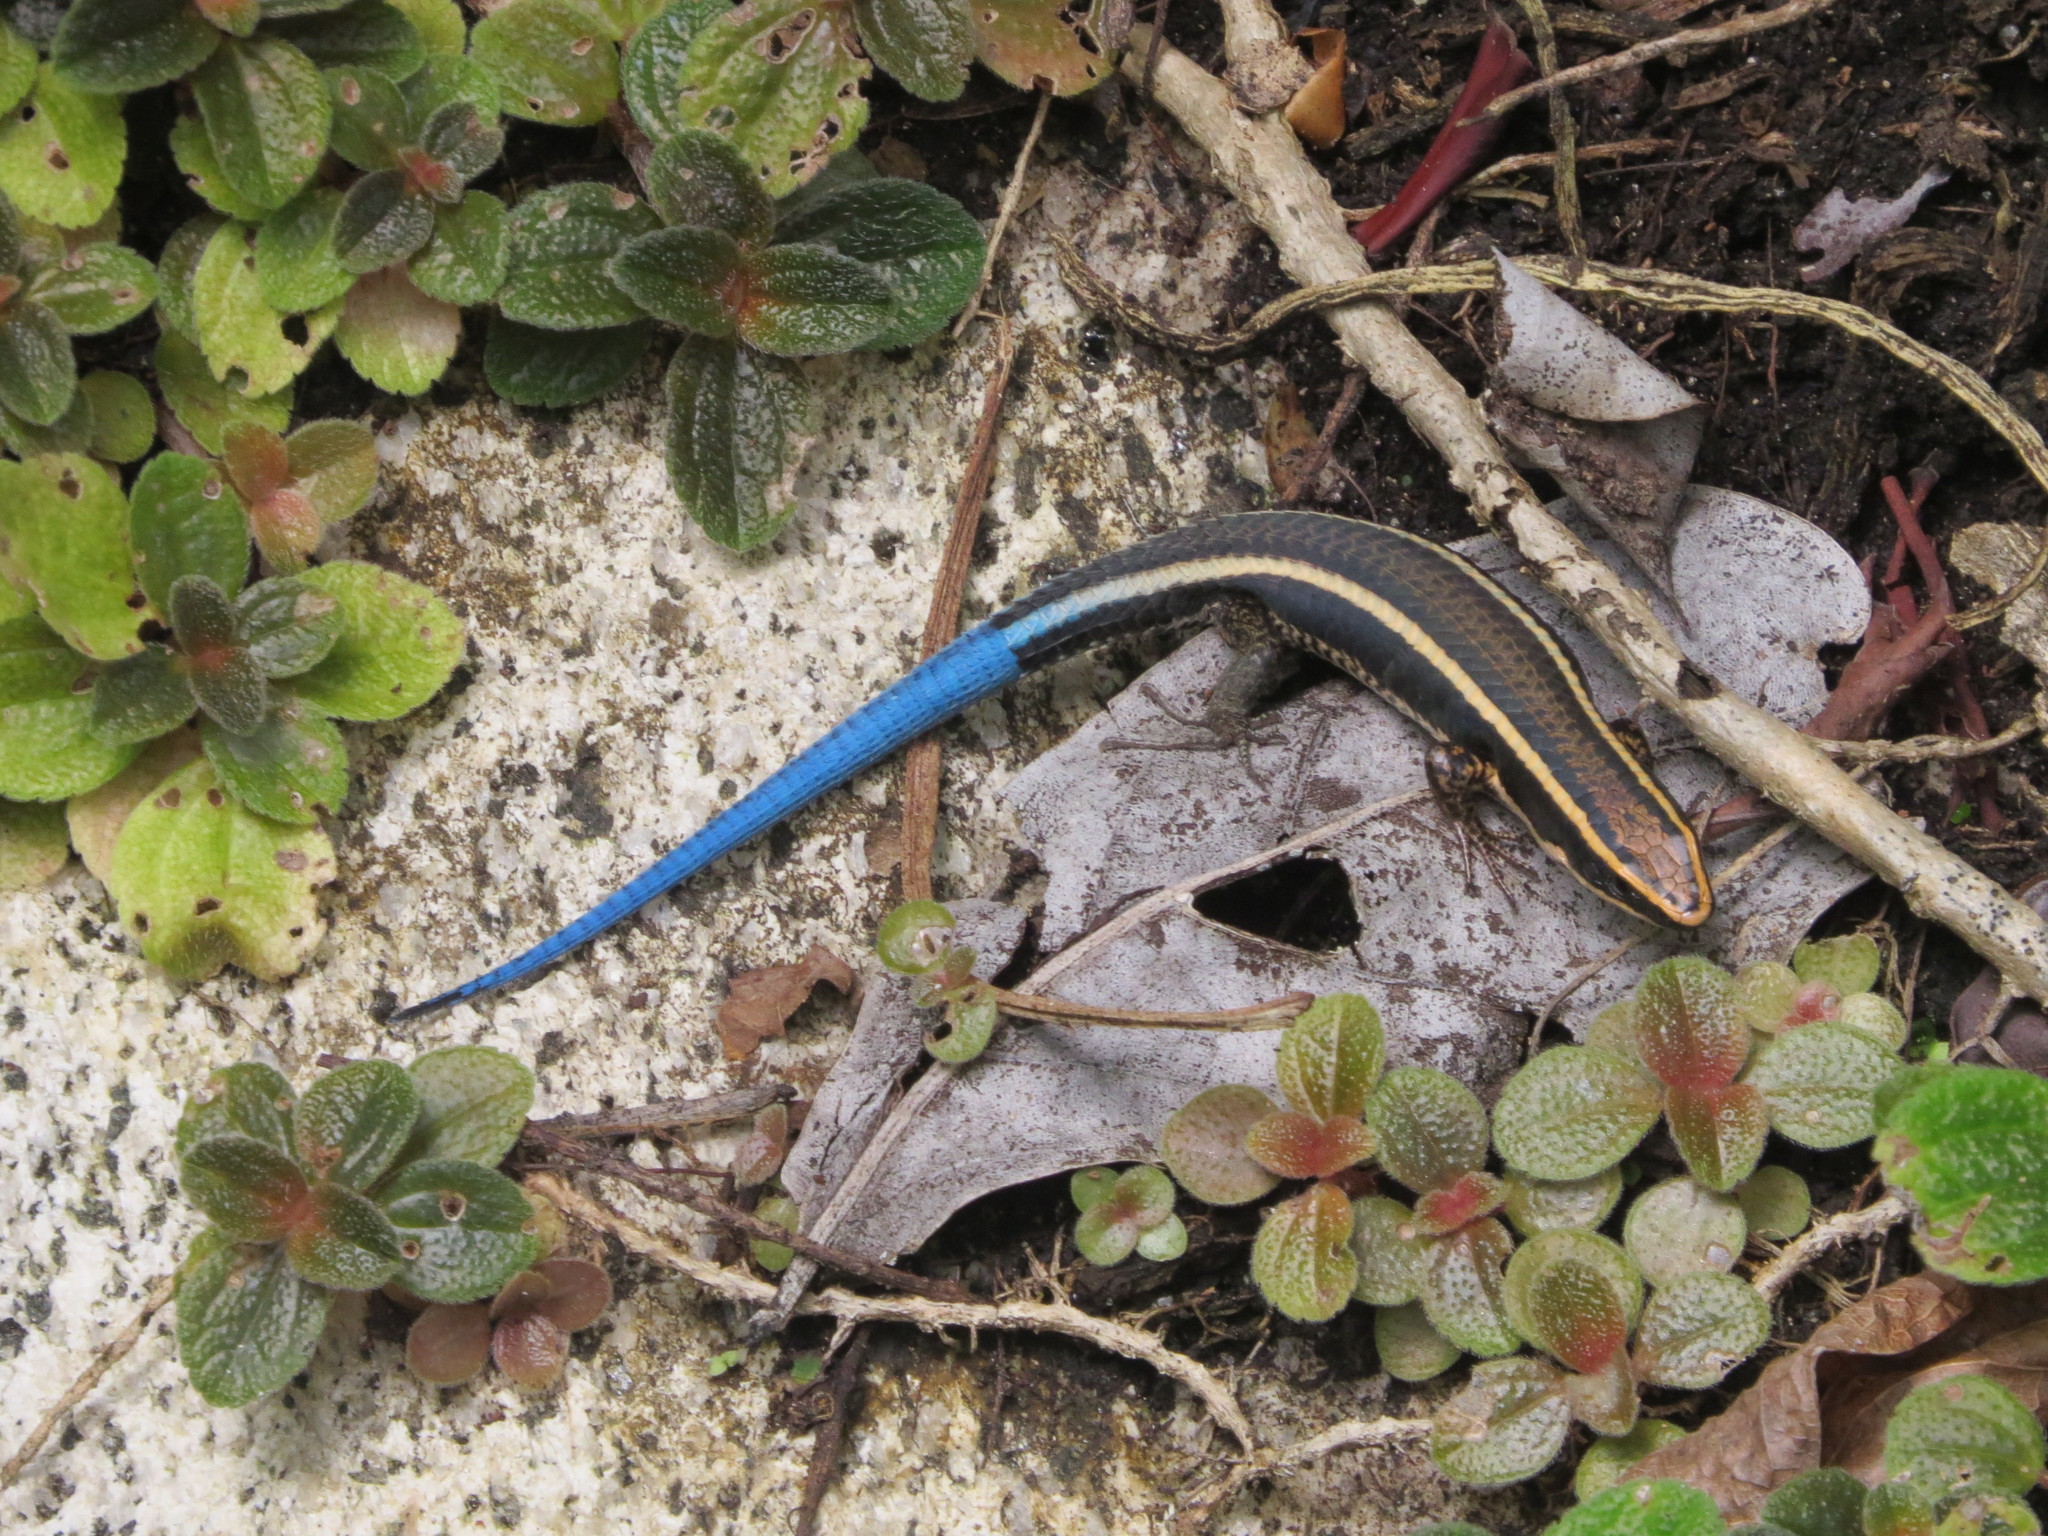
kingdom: Animalia
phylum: Chordata
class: Squamata
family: Gymnophthalmidae
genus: Tretioscincus
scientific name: Tretioscincus bifasciatus
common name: Rio magdalena tegu
